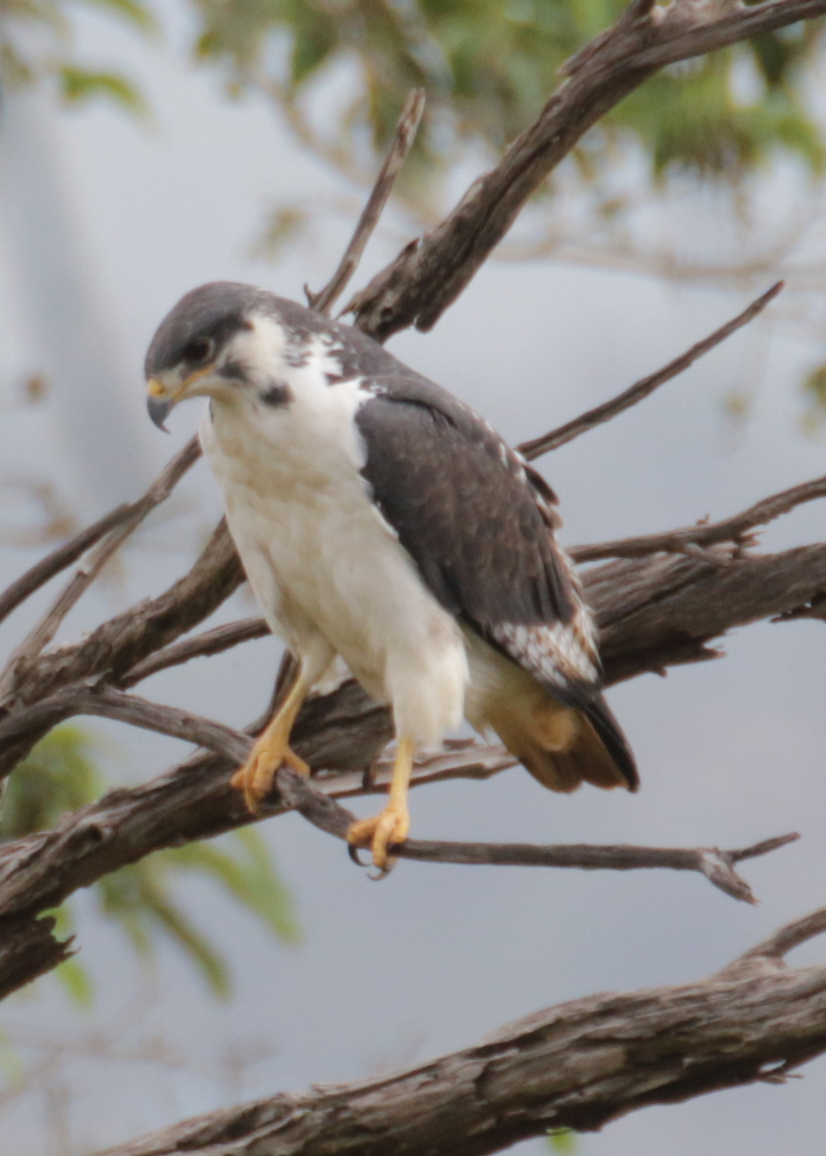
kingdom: Animalia
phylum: Chordata
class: Aves
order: Accipitriformes
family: Accipitridae
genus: Buteo
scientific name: Buteo augur
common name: Augur buzzard
